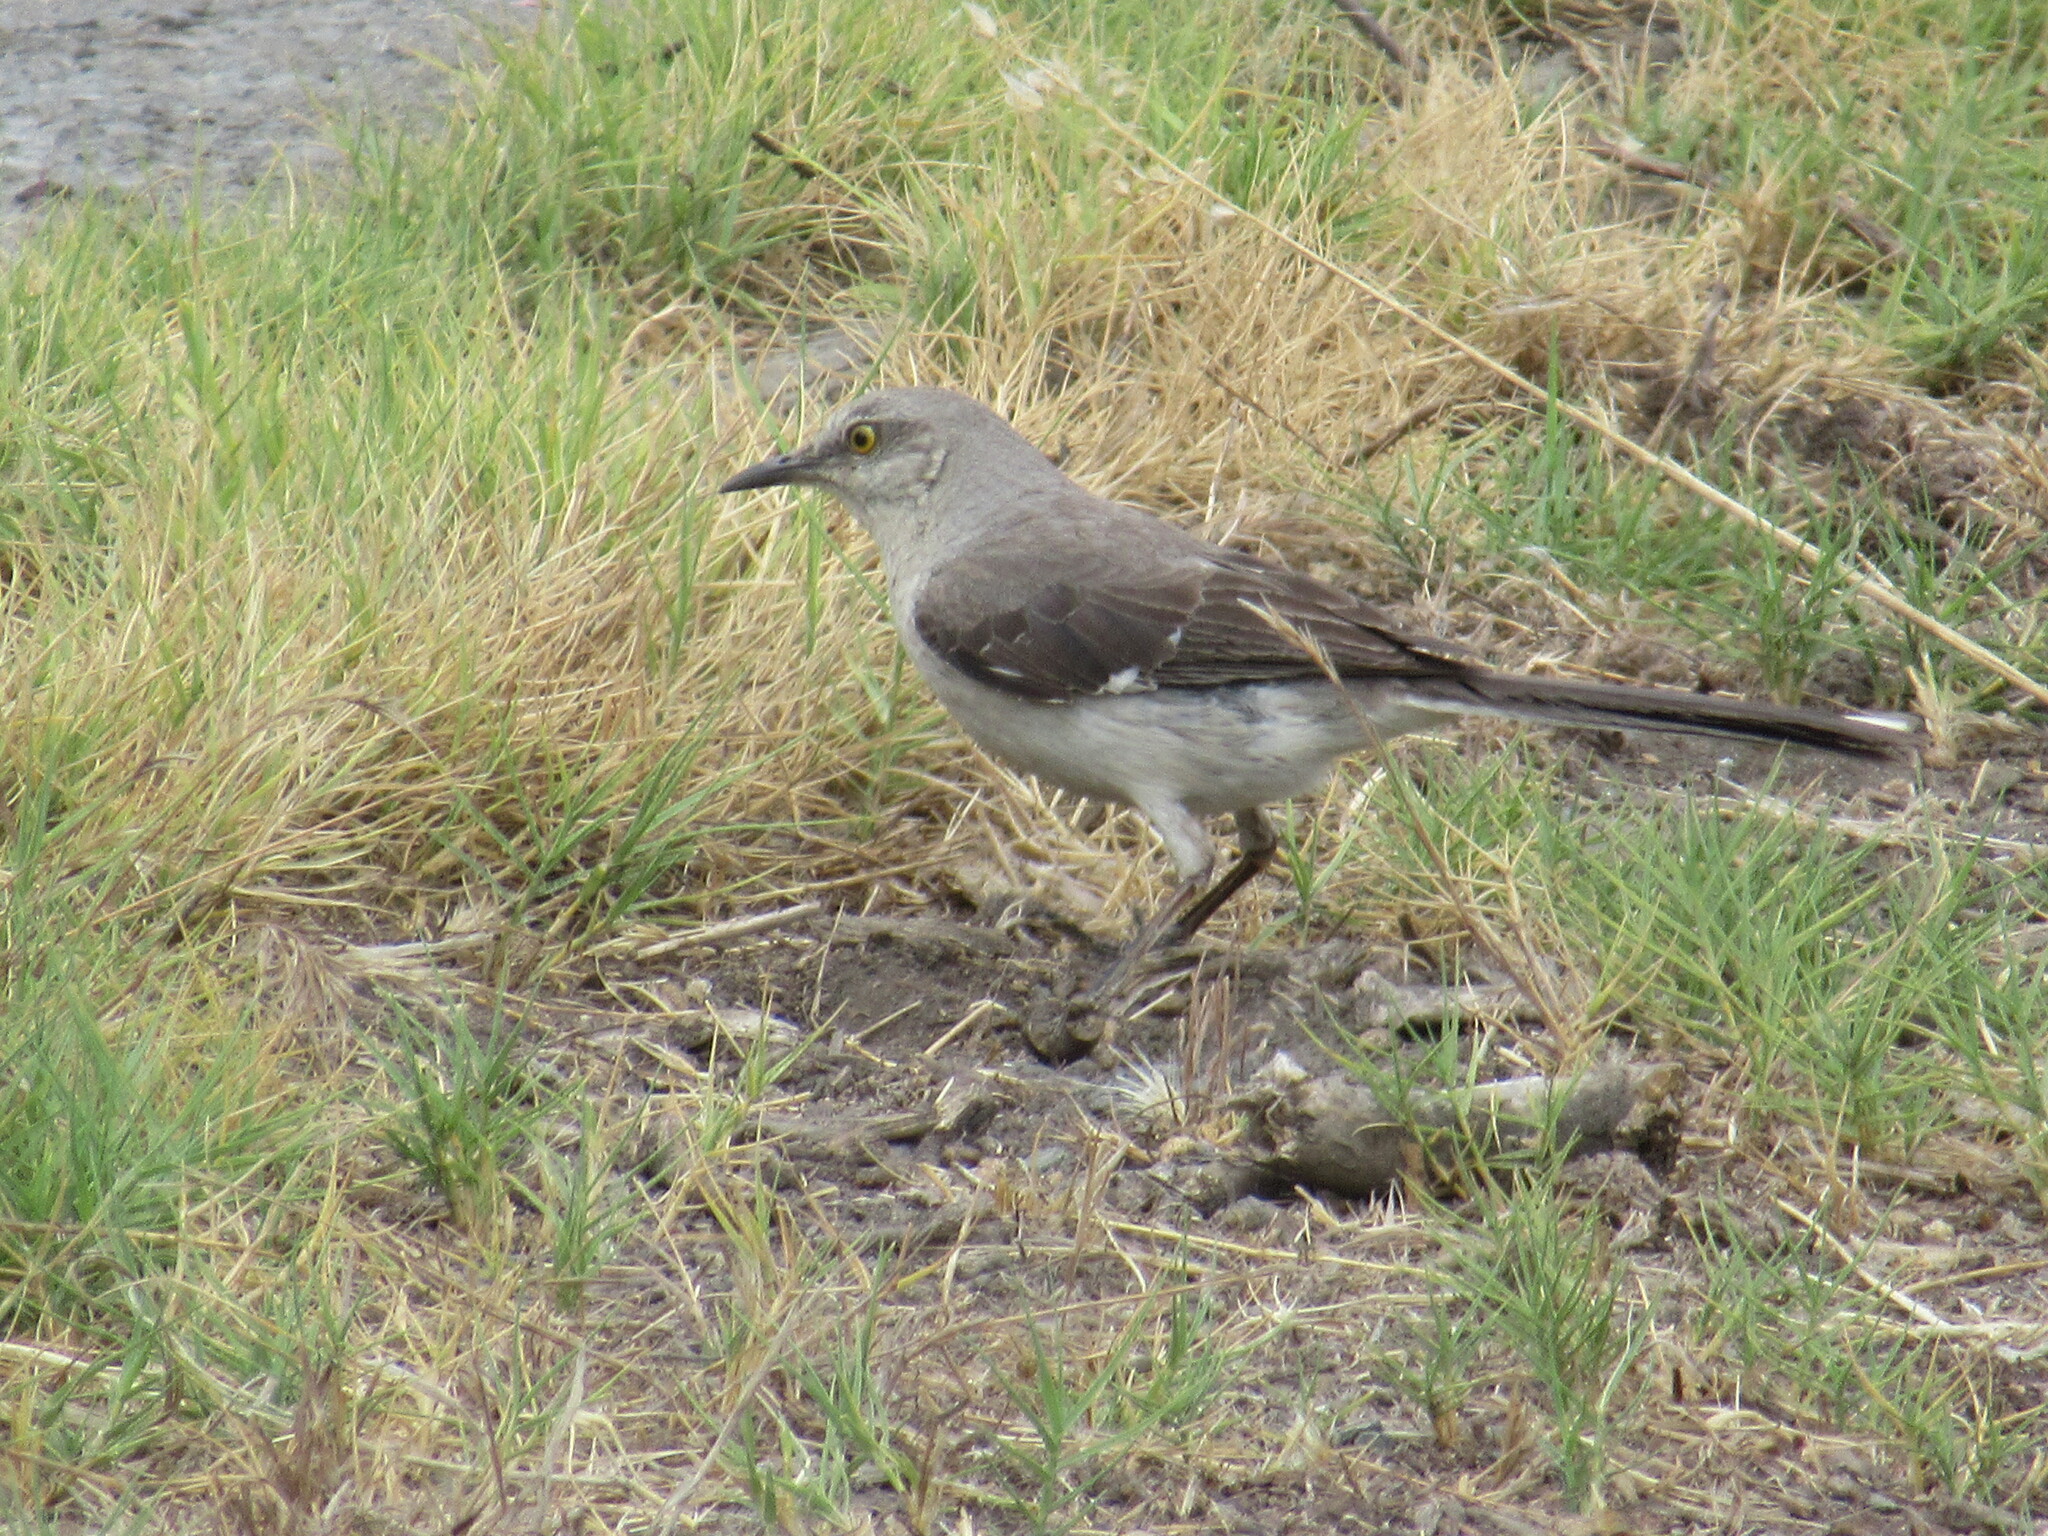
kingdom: Animalia
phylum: Chordata
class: Aves
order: Passeriformes
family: Mimidae
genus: Mimus
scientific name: Mimus polyglottos
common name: Northern mockingbird
